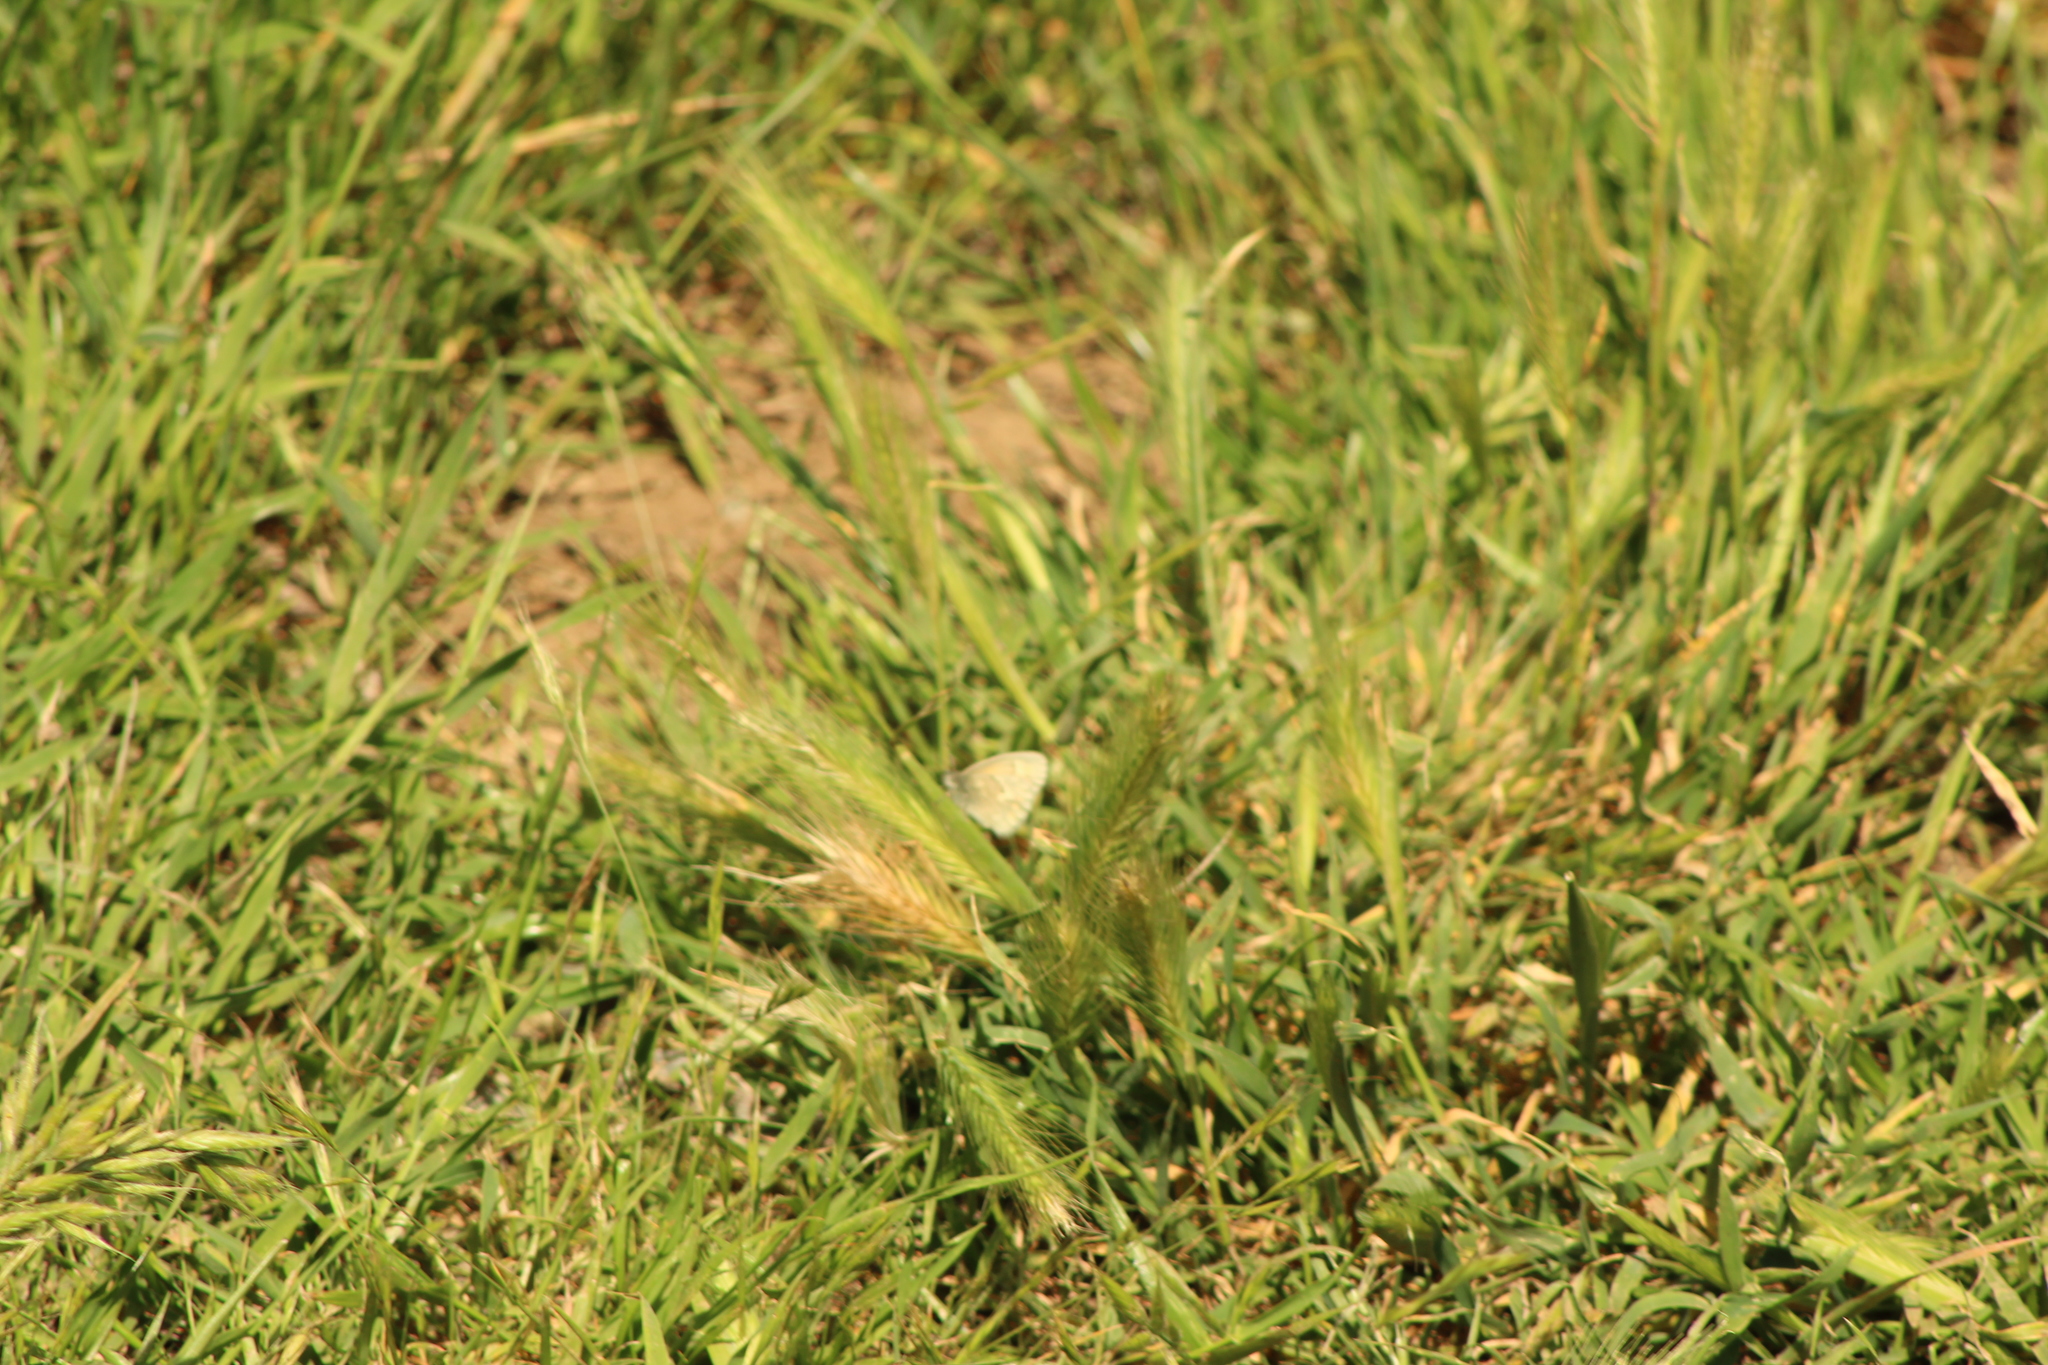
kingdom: Plantae
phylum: Tracheophyta
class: Liliopsida
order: Poales
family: Poaceae
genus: Hordeum
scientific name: Hordeum murinum
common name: Wall barley
